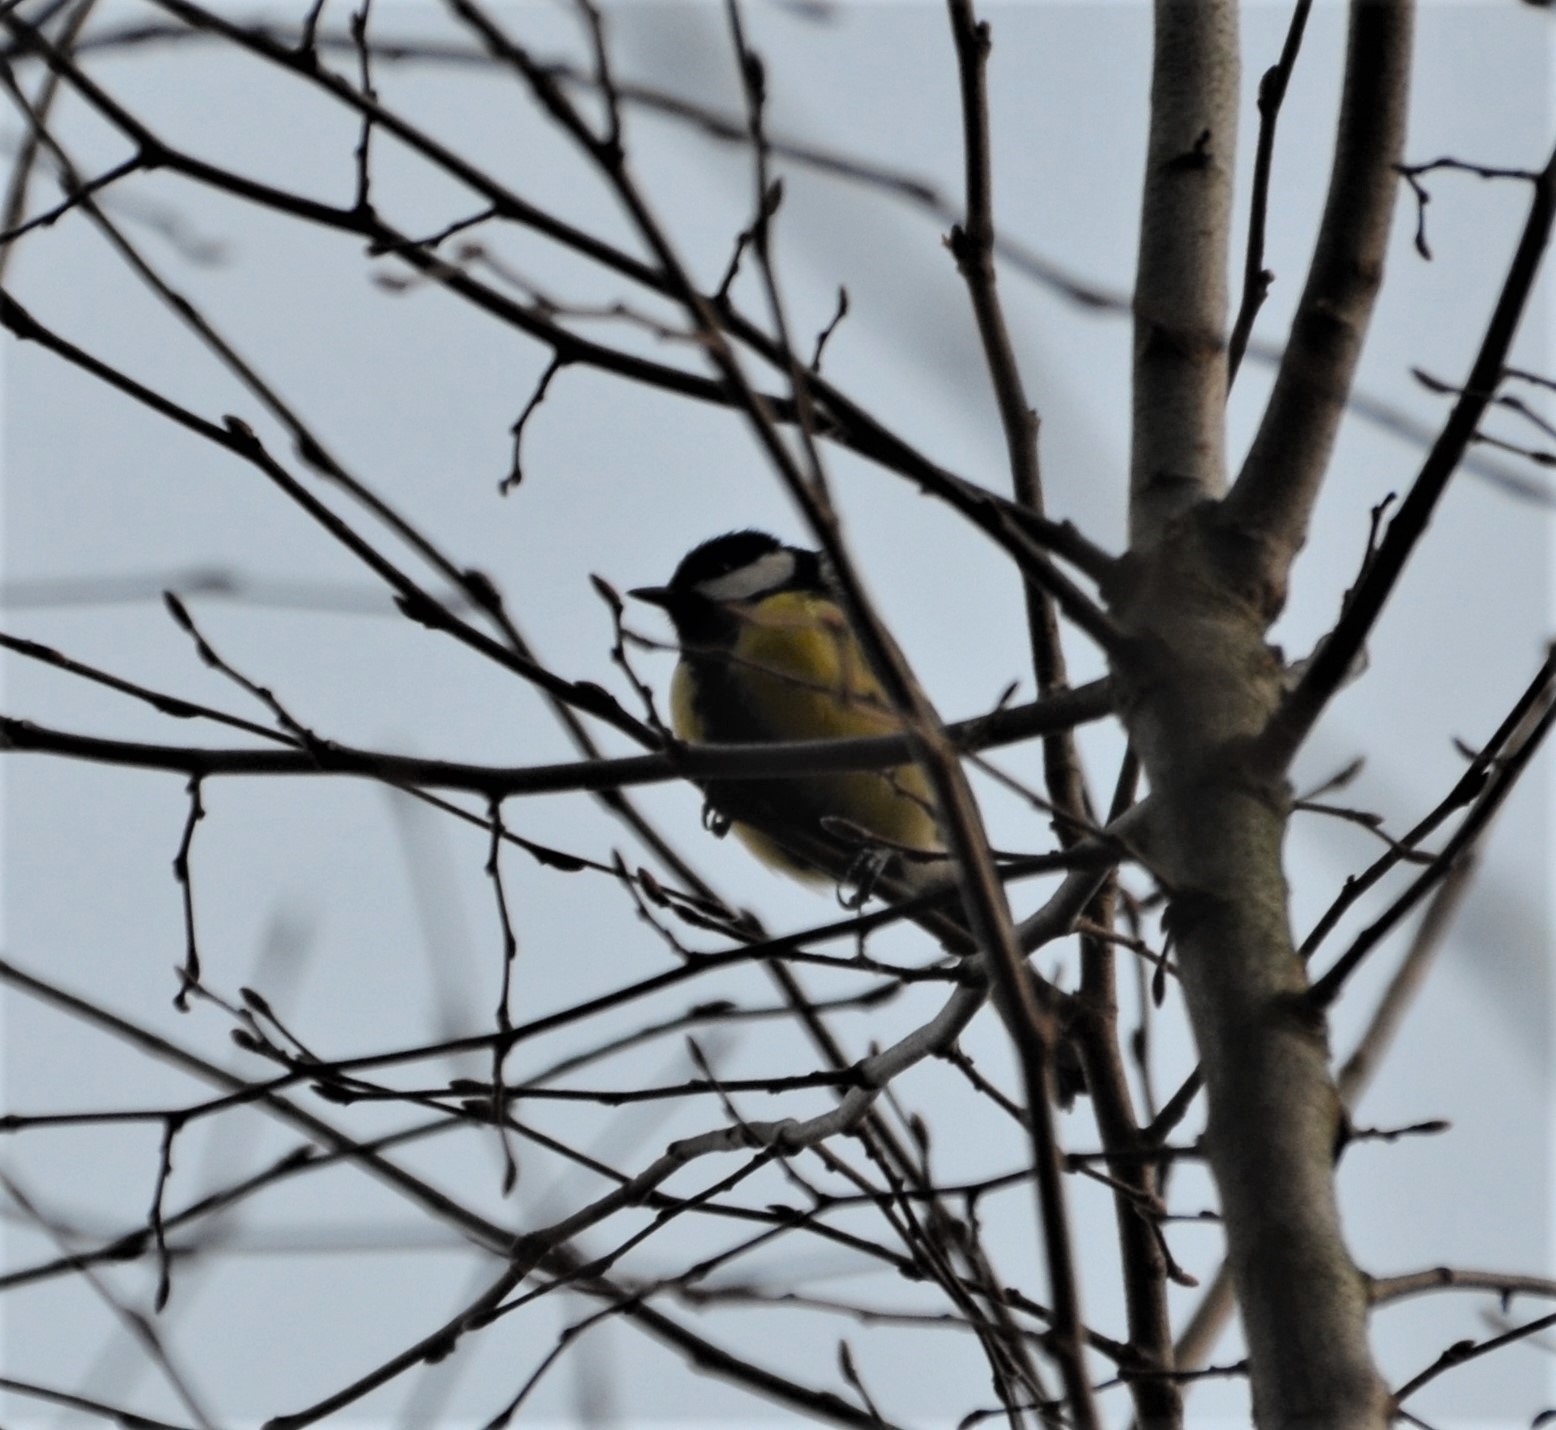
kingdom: Animalia
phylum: Chordata
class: Aves
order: Passeriformes
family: Paridae
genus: Parus
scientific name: Parus major
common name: Great tit
